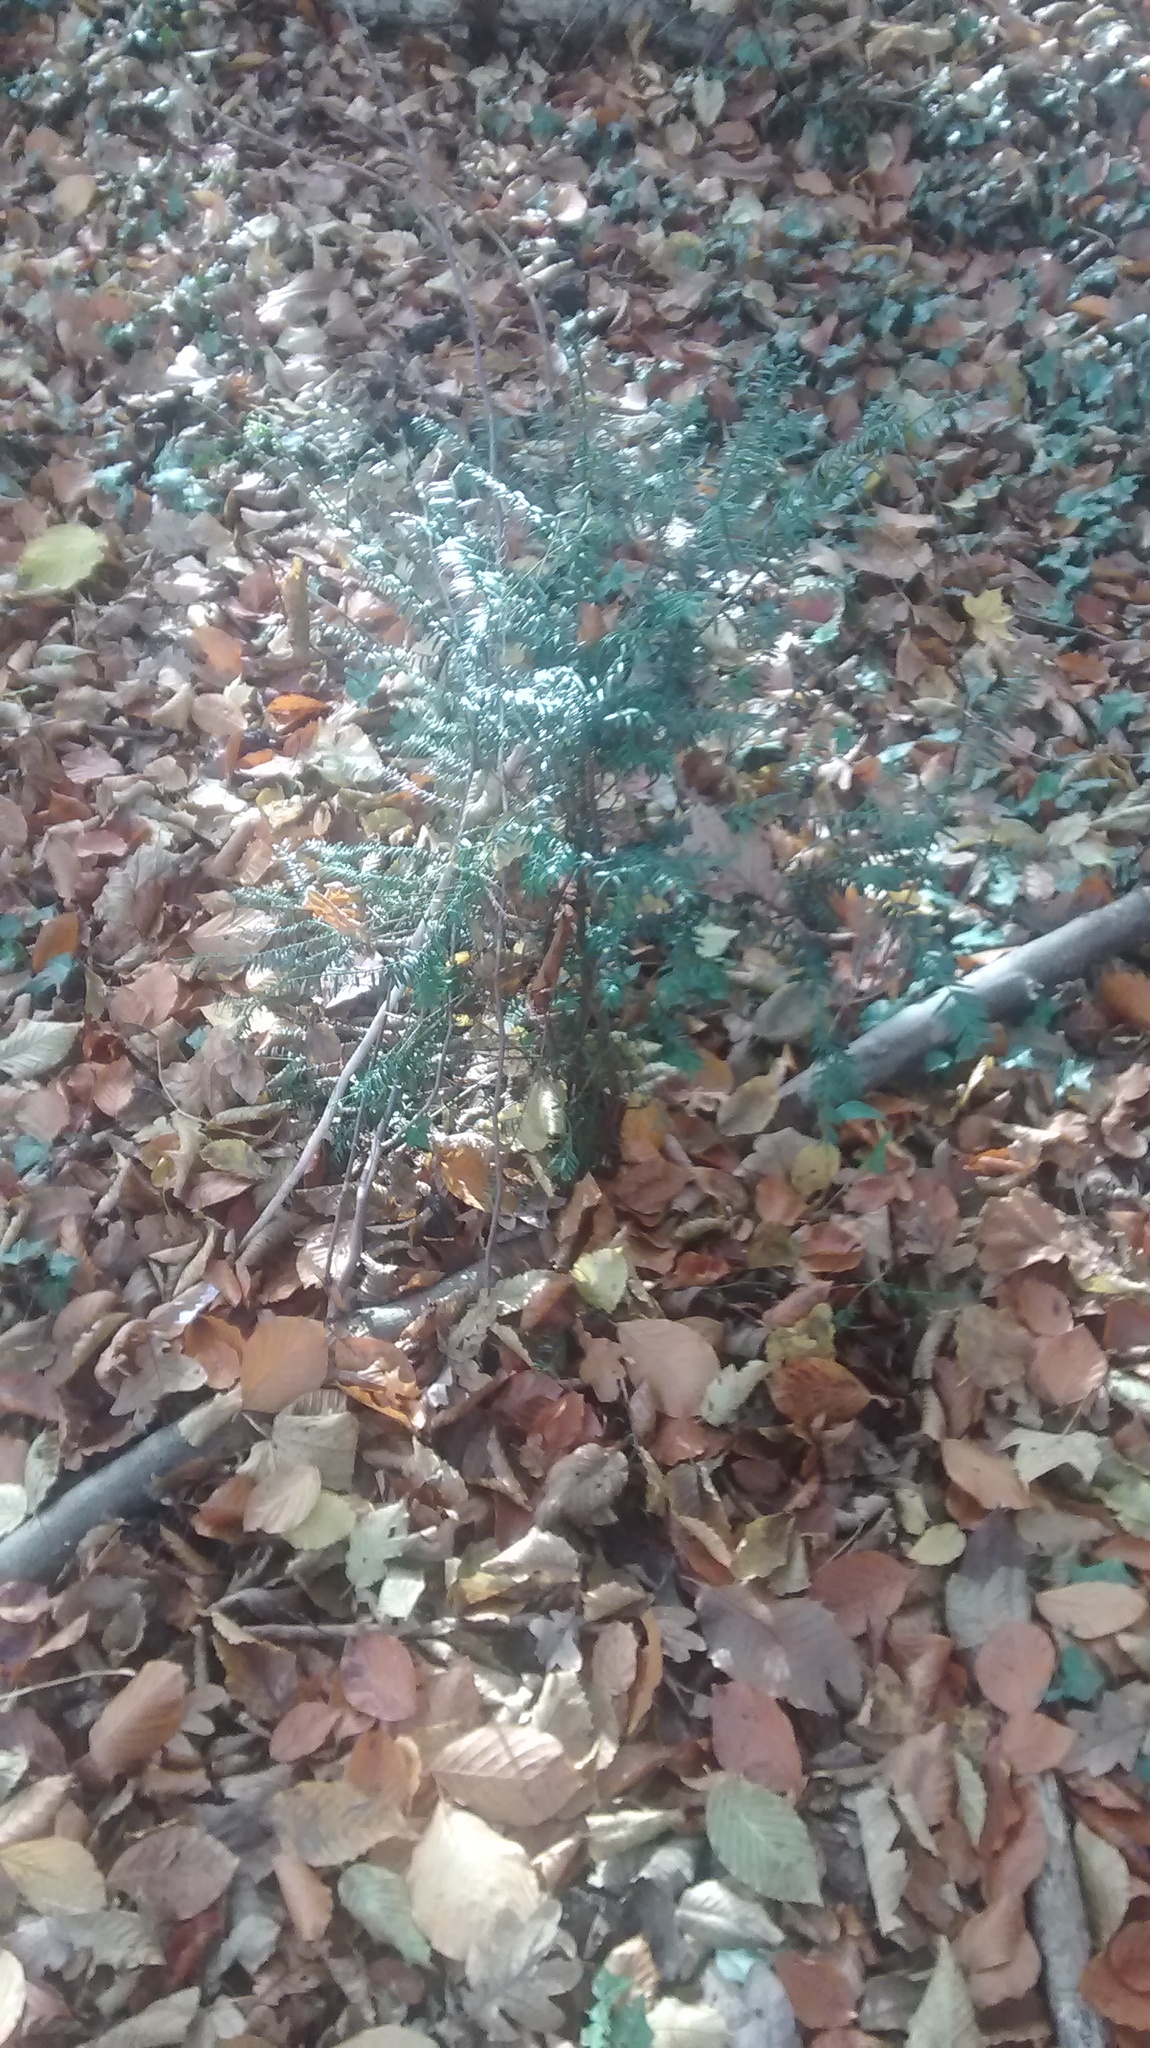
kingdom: Plantae
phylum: Tracheophyta
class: Pinopsida
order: Pinales
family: Taxaceae
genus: Taxus
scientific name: Taxus baccata
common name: Yew
